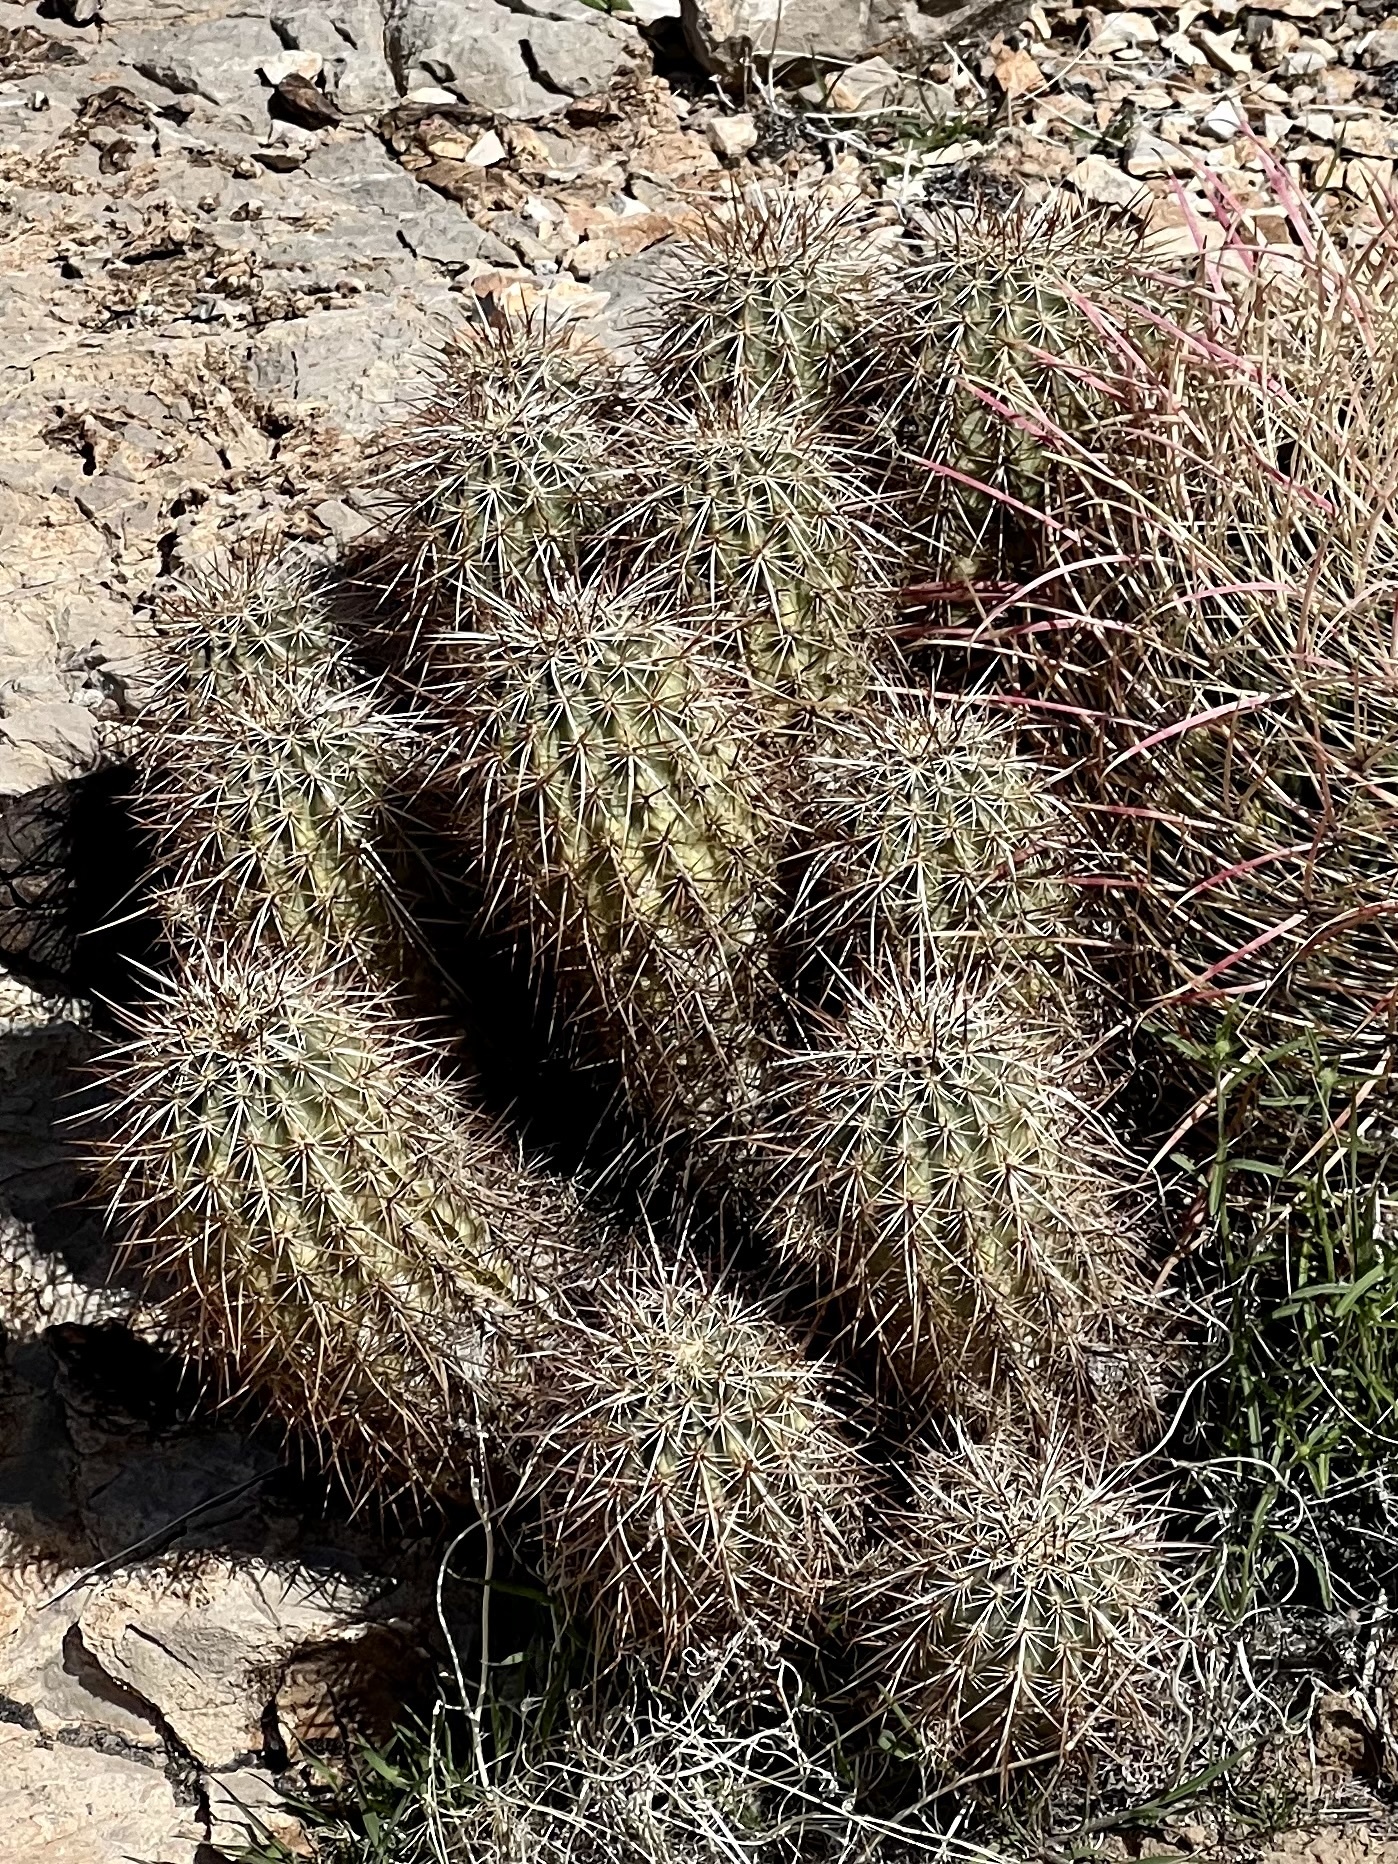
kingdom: Plantae
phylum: Tracheophyta
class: Magnoliopsida
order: Caryophyllales
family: Cactaceae
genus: Echinocereus
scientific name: Echinocereus engelmannii
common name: Engelmann's hedgehog cactus
